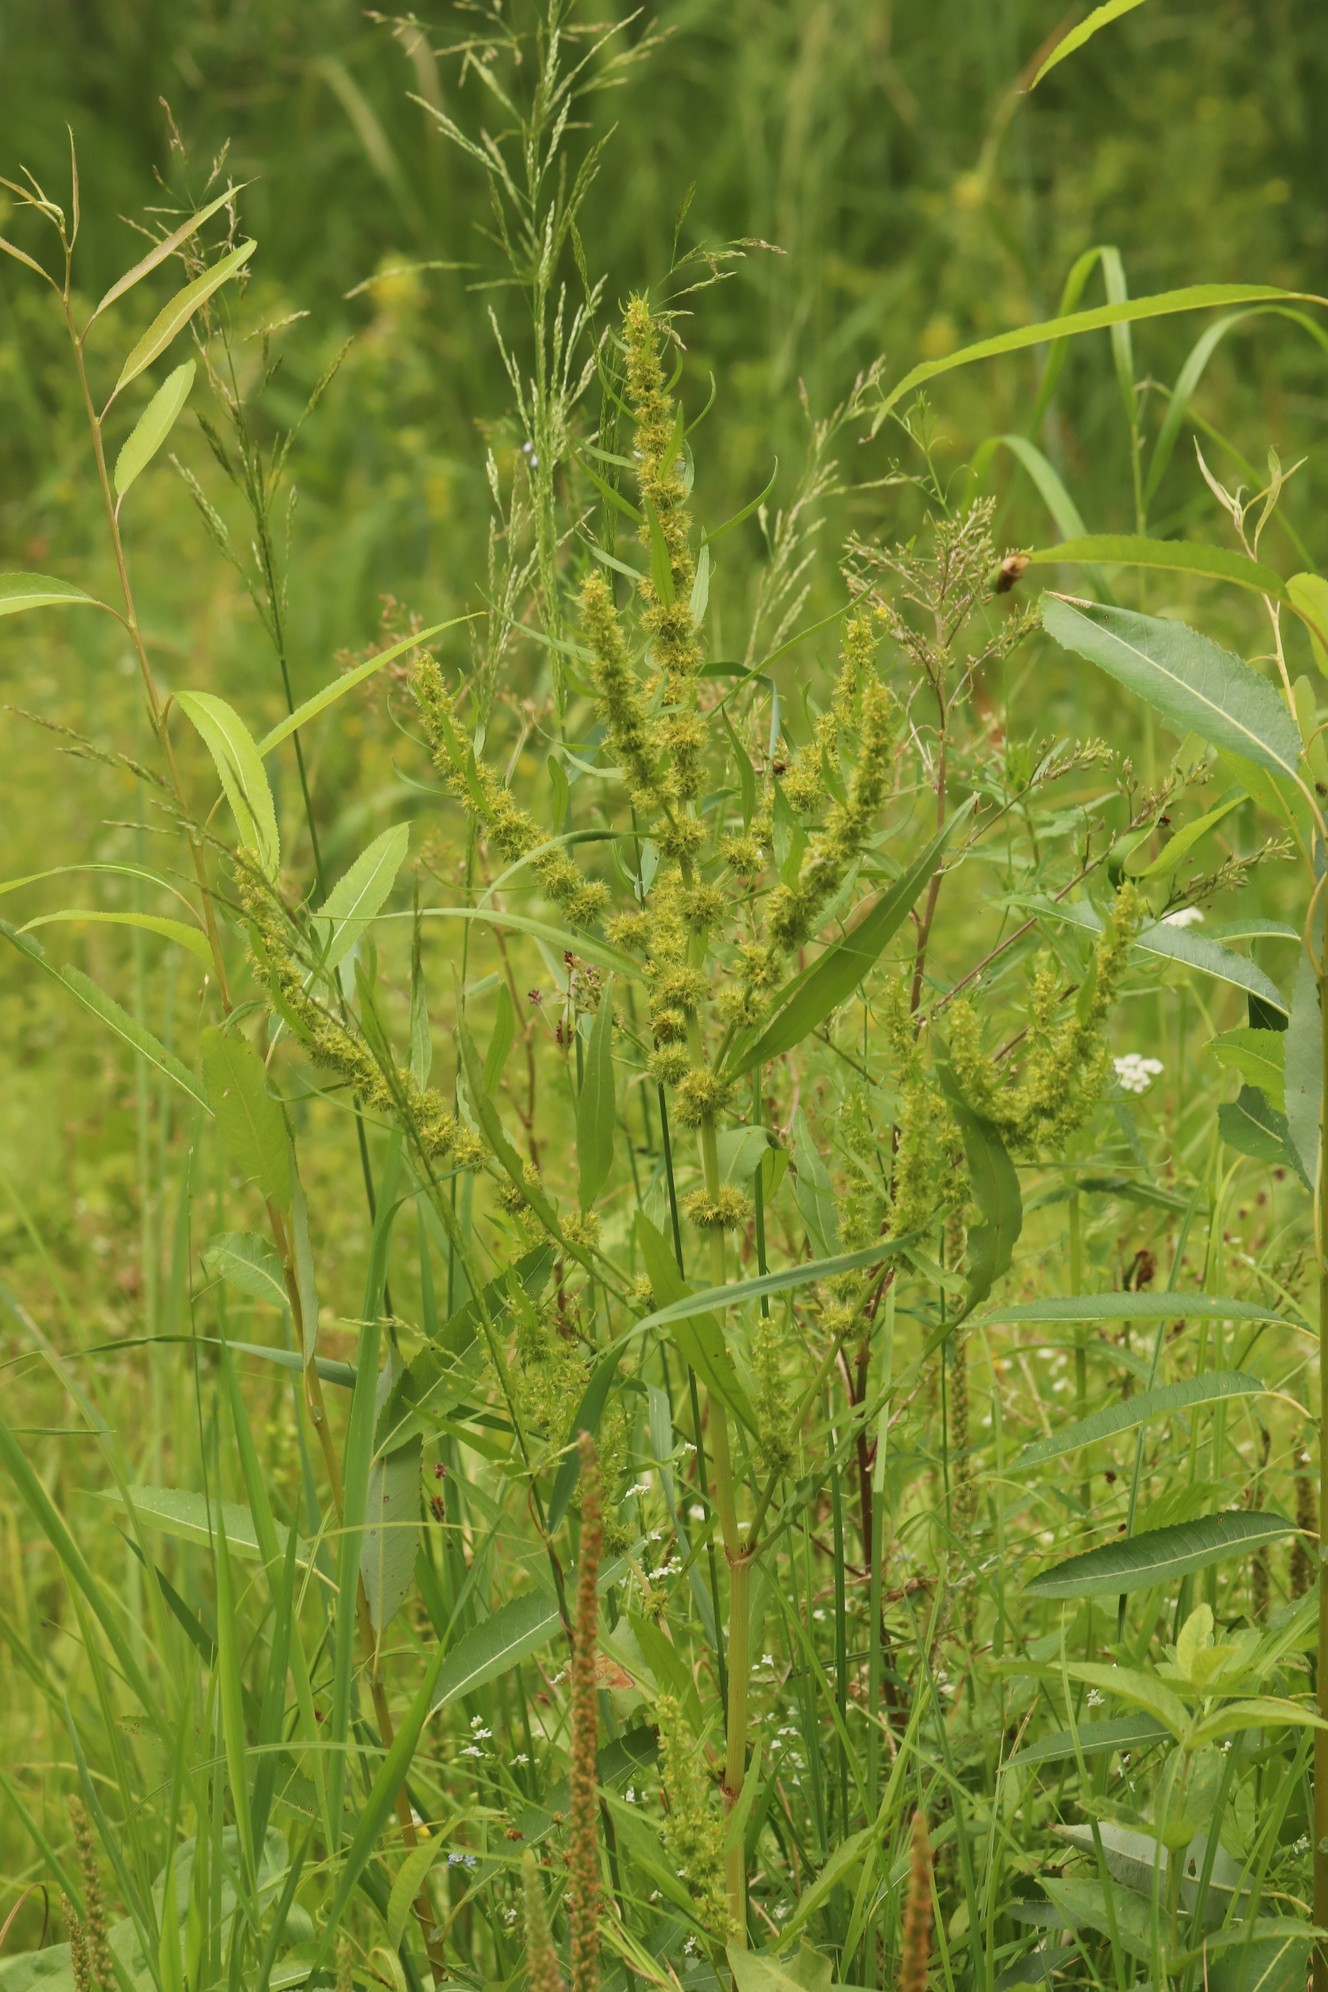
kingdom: Plantae
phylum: Tracheophyta
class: Magnoliopsida
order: Caryophyllales
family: Polygonaceae
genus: Rumex
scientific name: Rumex maritimus
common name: Golden dock
